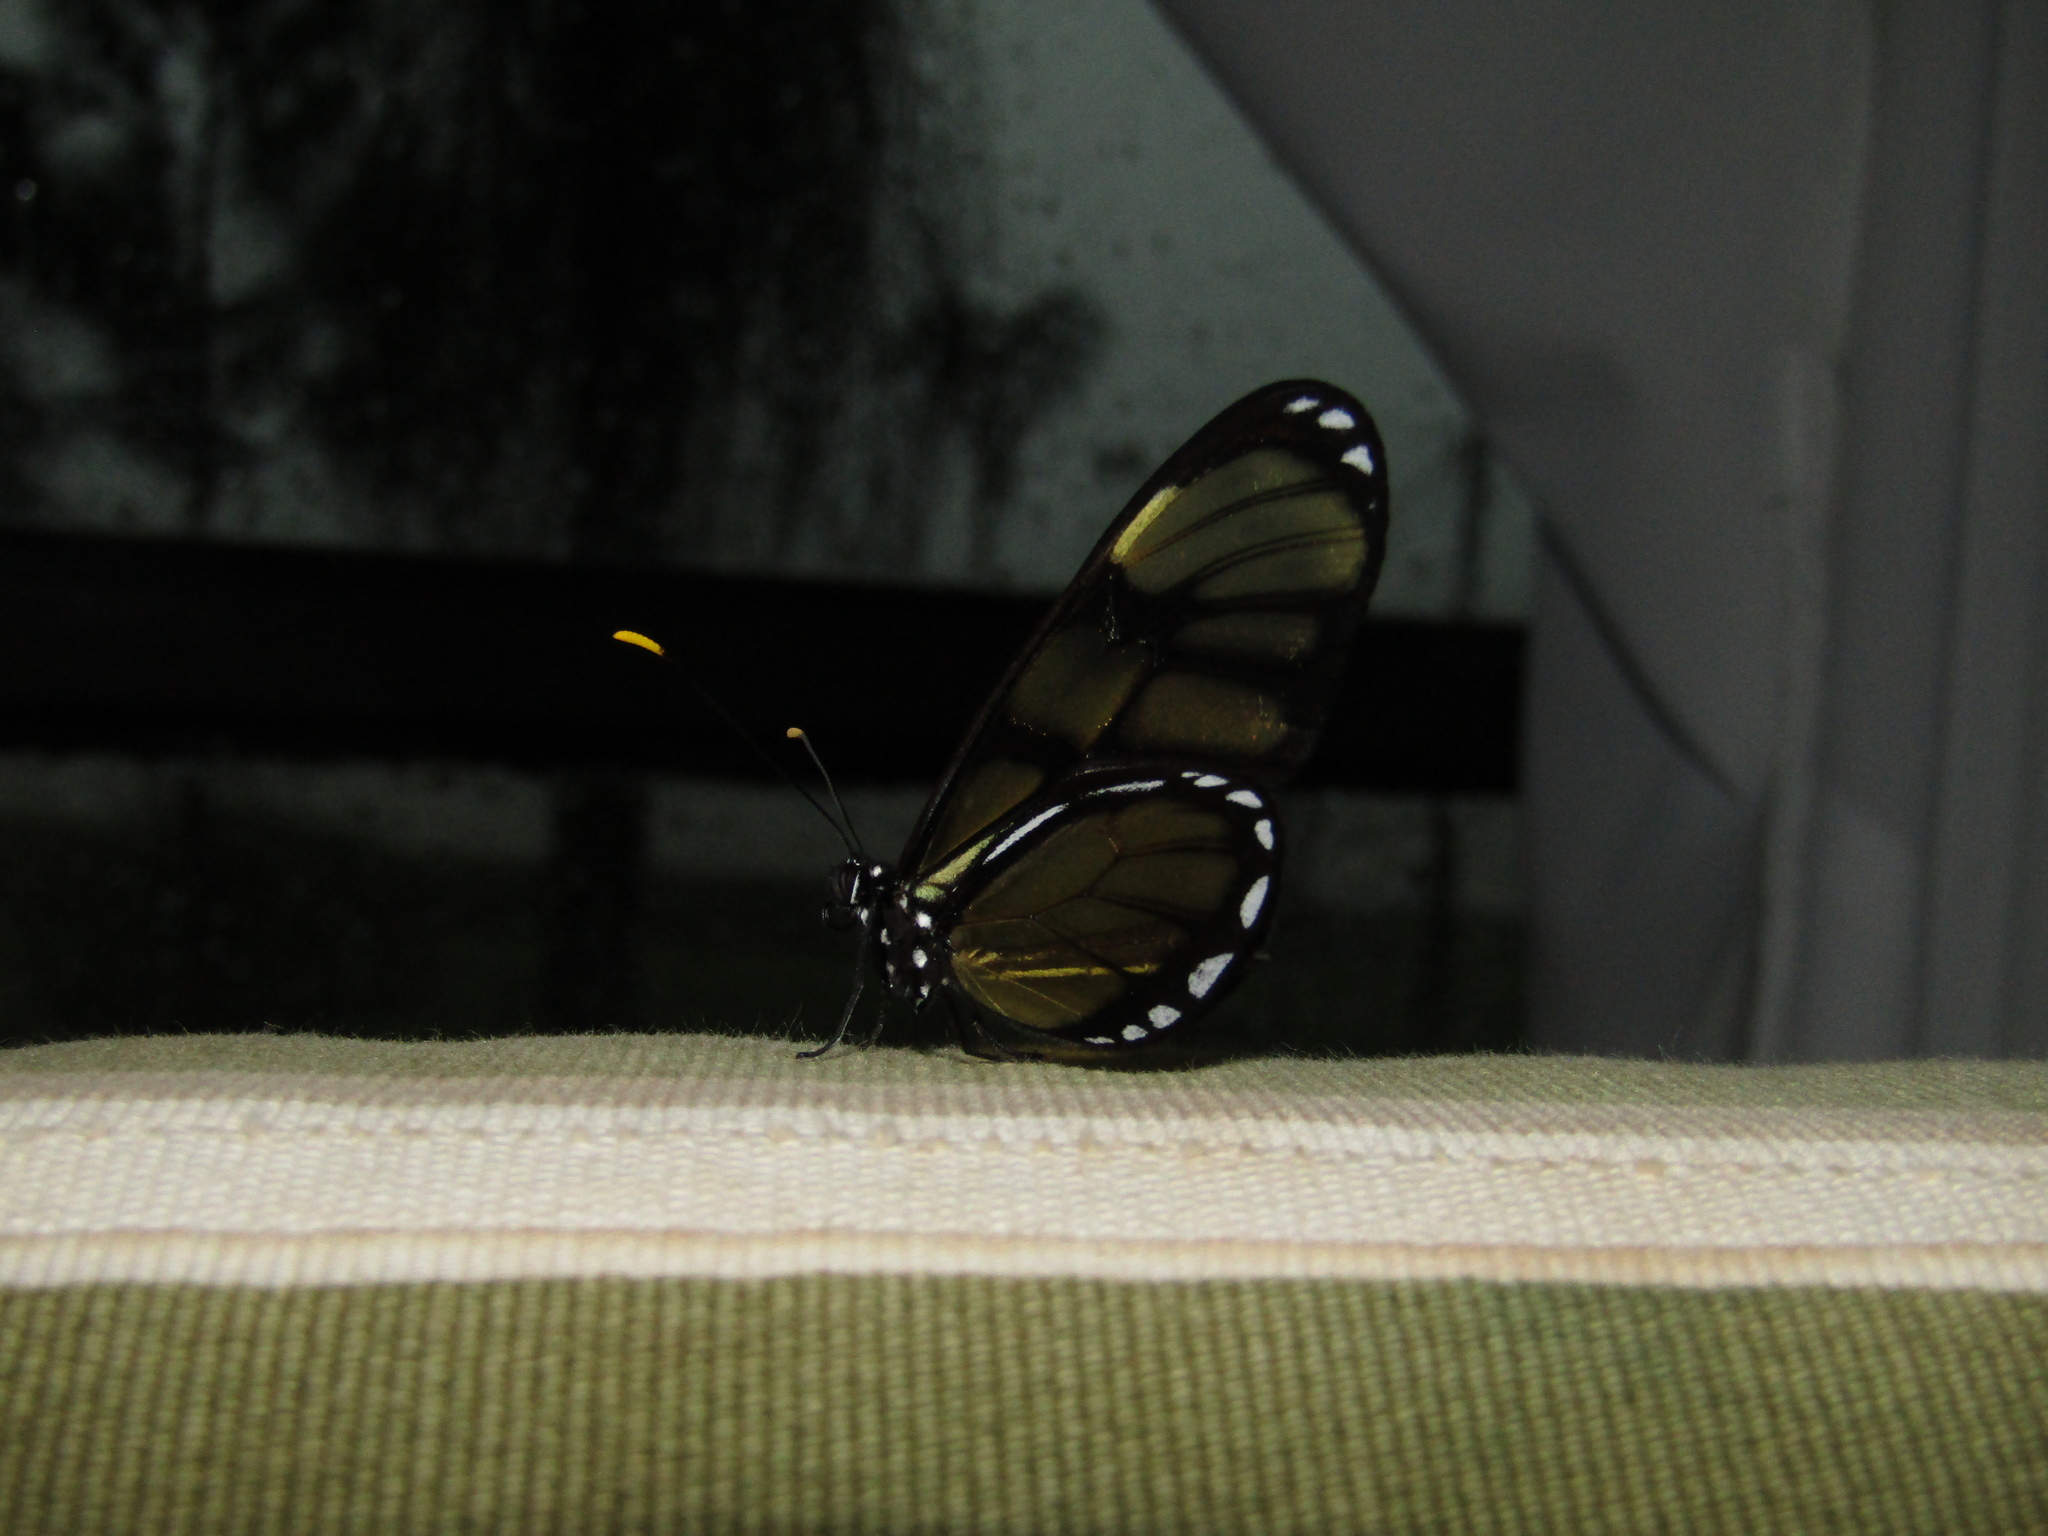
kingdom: Animalia
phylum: Arthropoda
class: Insecta
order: Lepidoptera
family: Nymphalidae
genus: Dircenna
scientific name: Dircenna dero
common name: Dero clearwing
